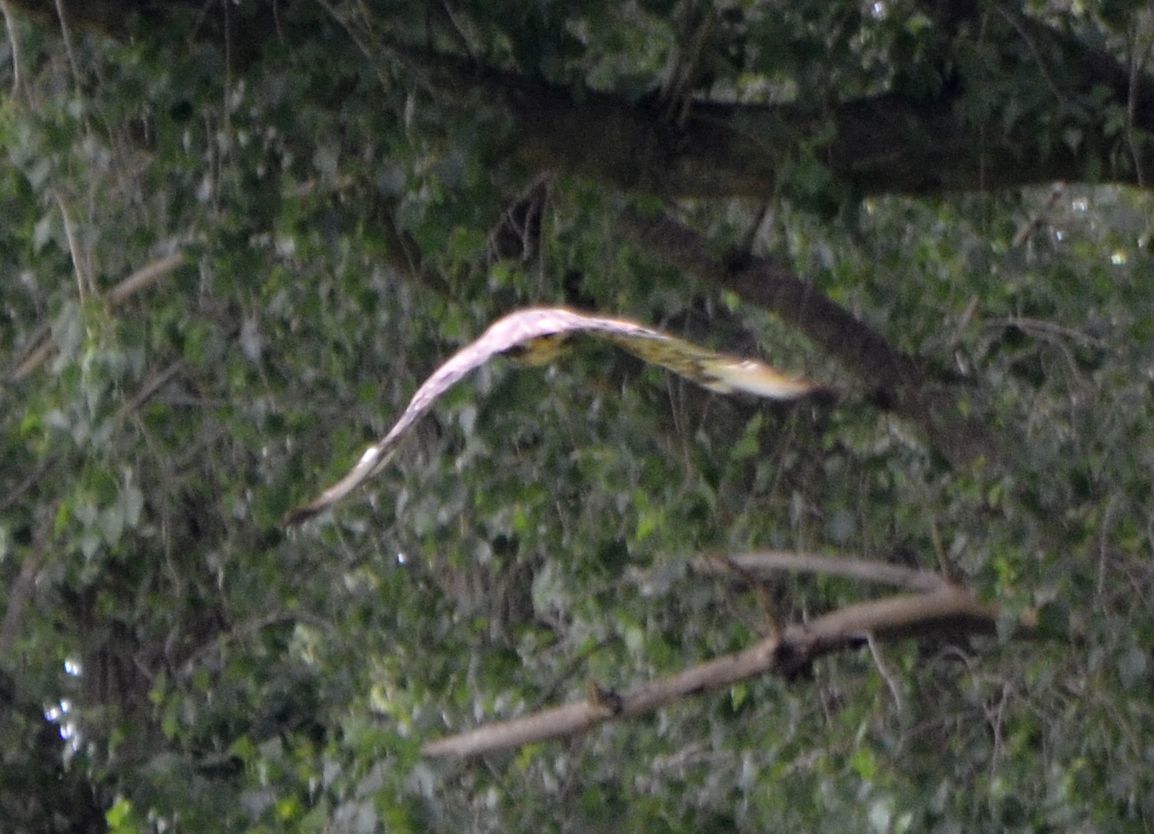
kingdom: Animalia
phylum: Chordata
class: Aves
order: Accipitriformes
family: Accipitridae
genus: Buteo
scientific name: Buteo buteo
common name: Common buzzard
